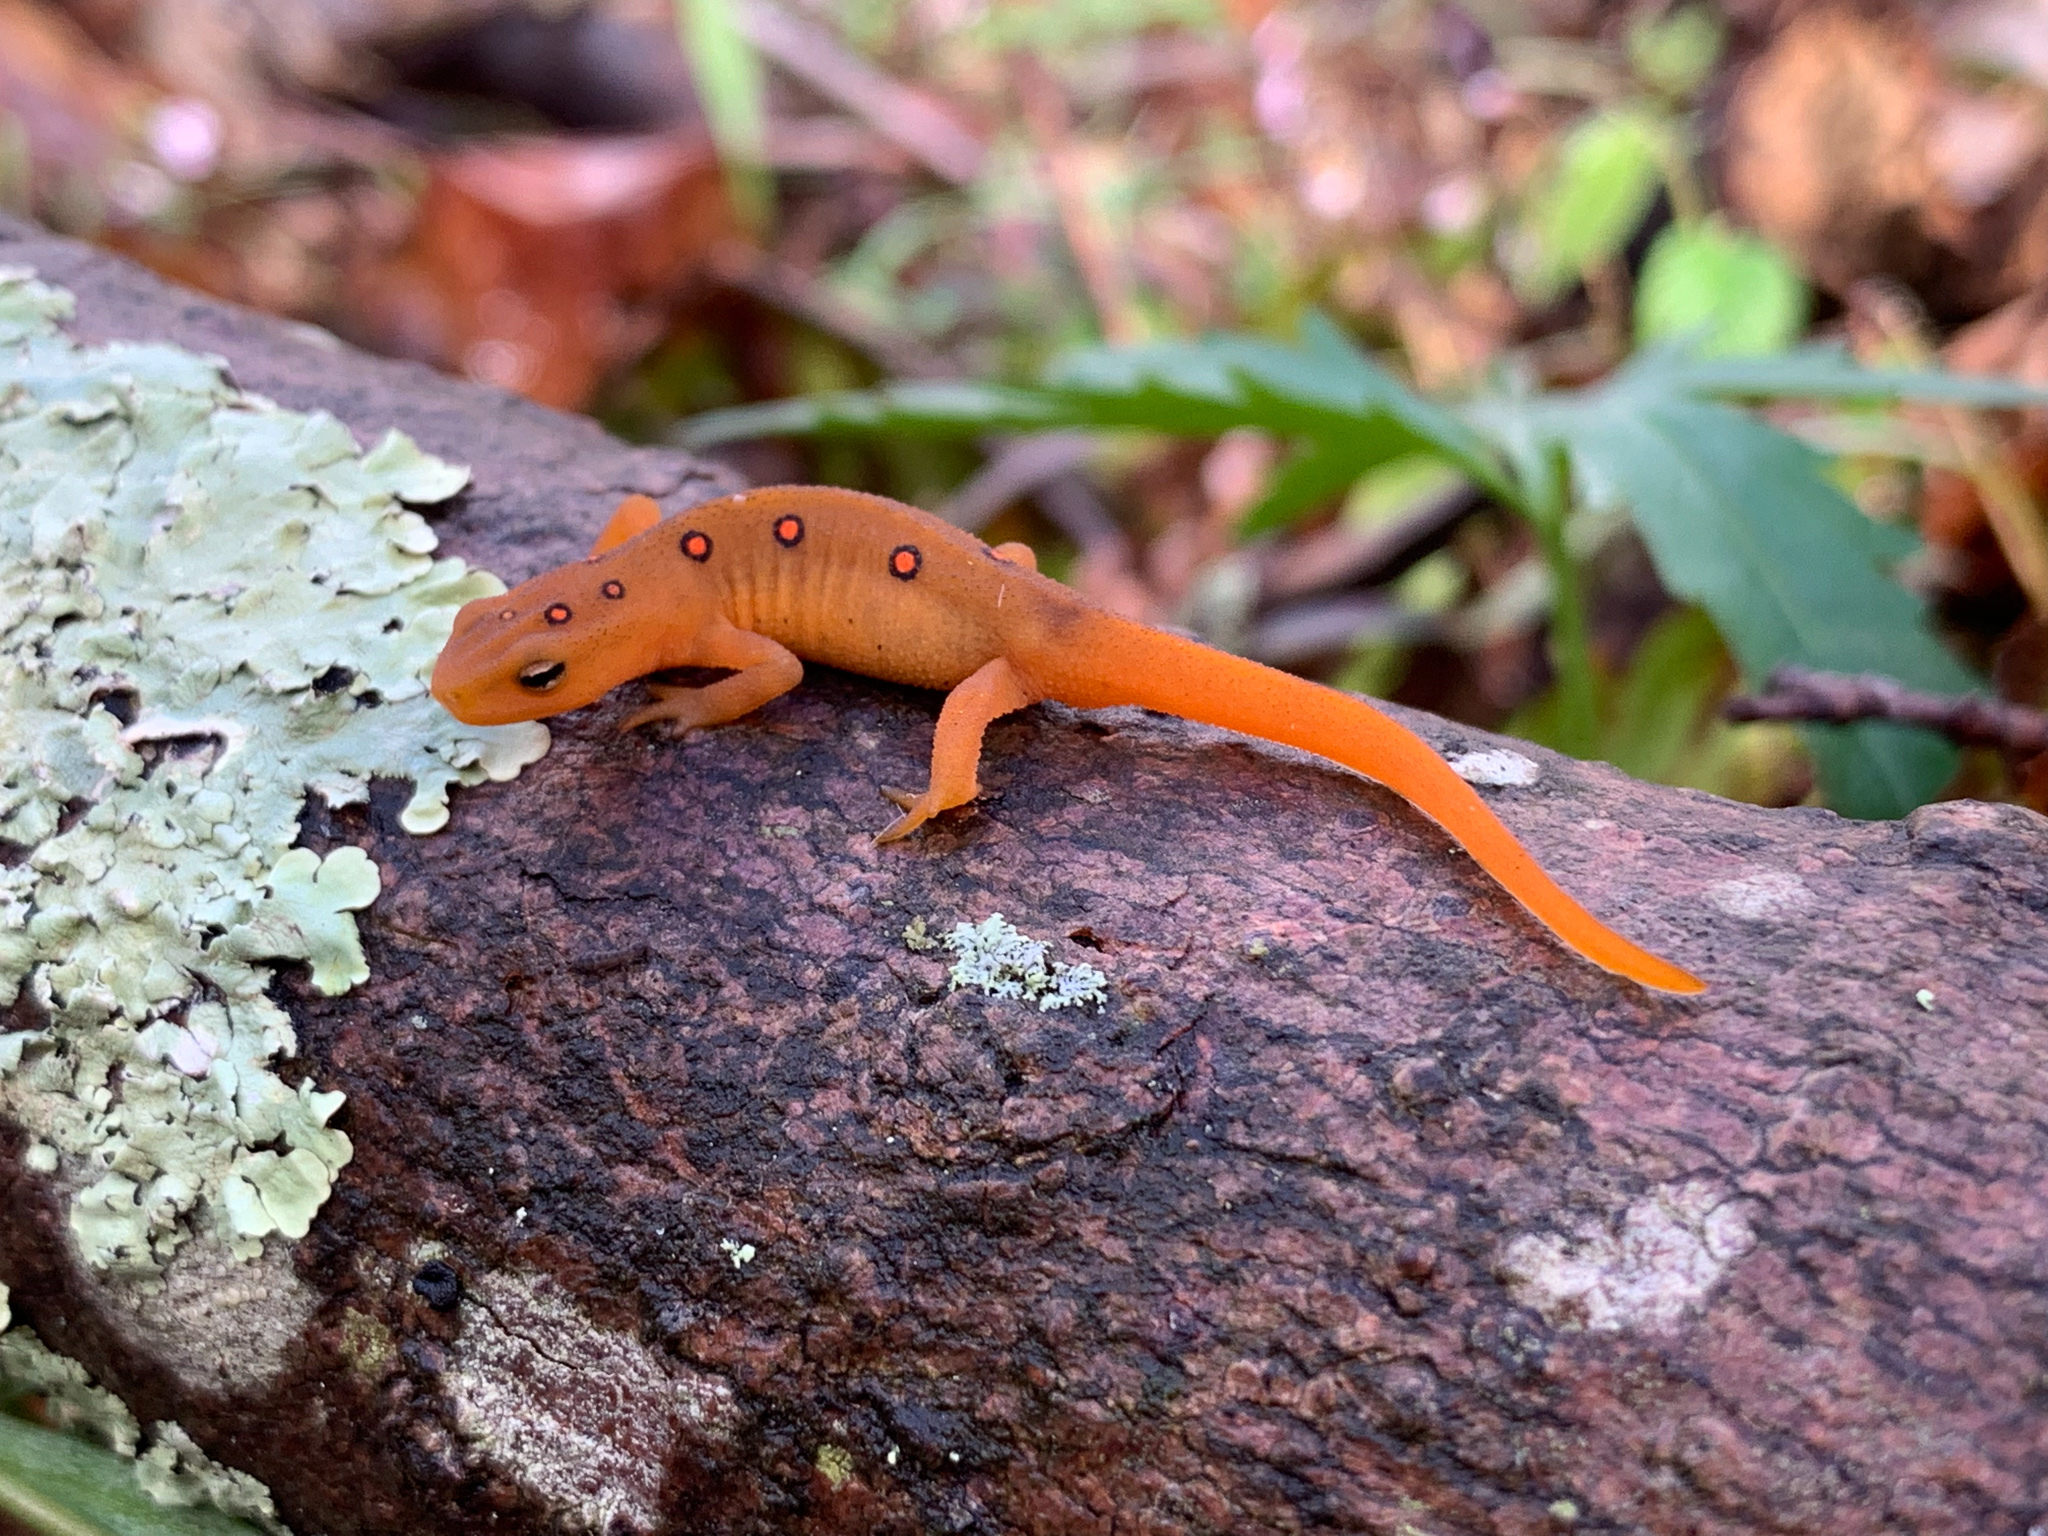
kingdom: Animalia
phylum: Chordata
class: Amphibia
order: Caudata
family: Salamandridae
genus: Notophthalmus
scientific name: Notophthalmus viridescens
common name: Eastern newt
